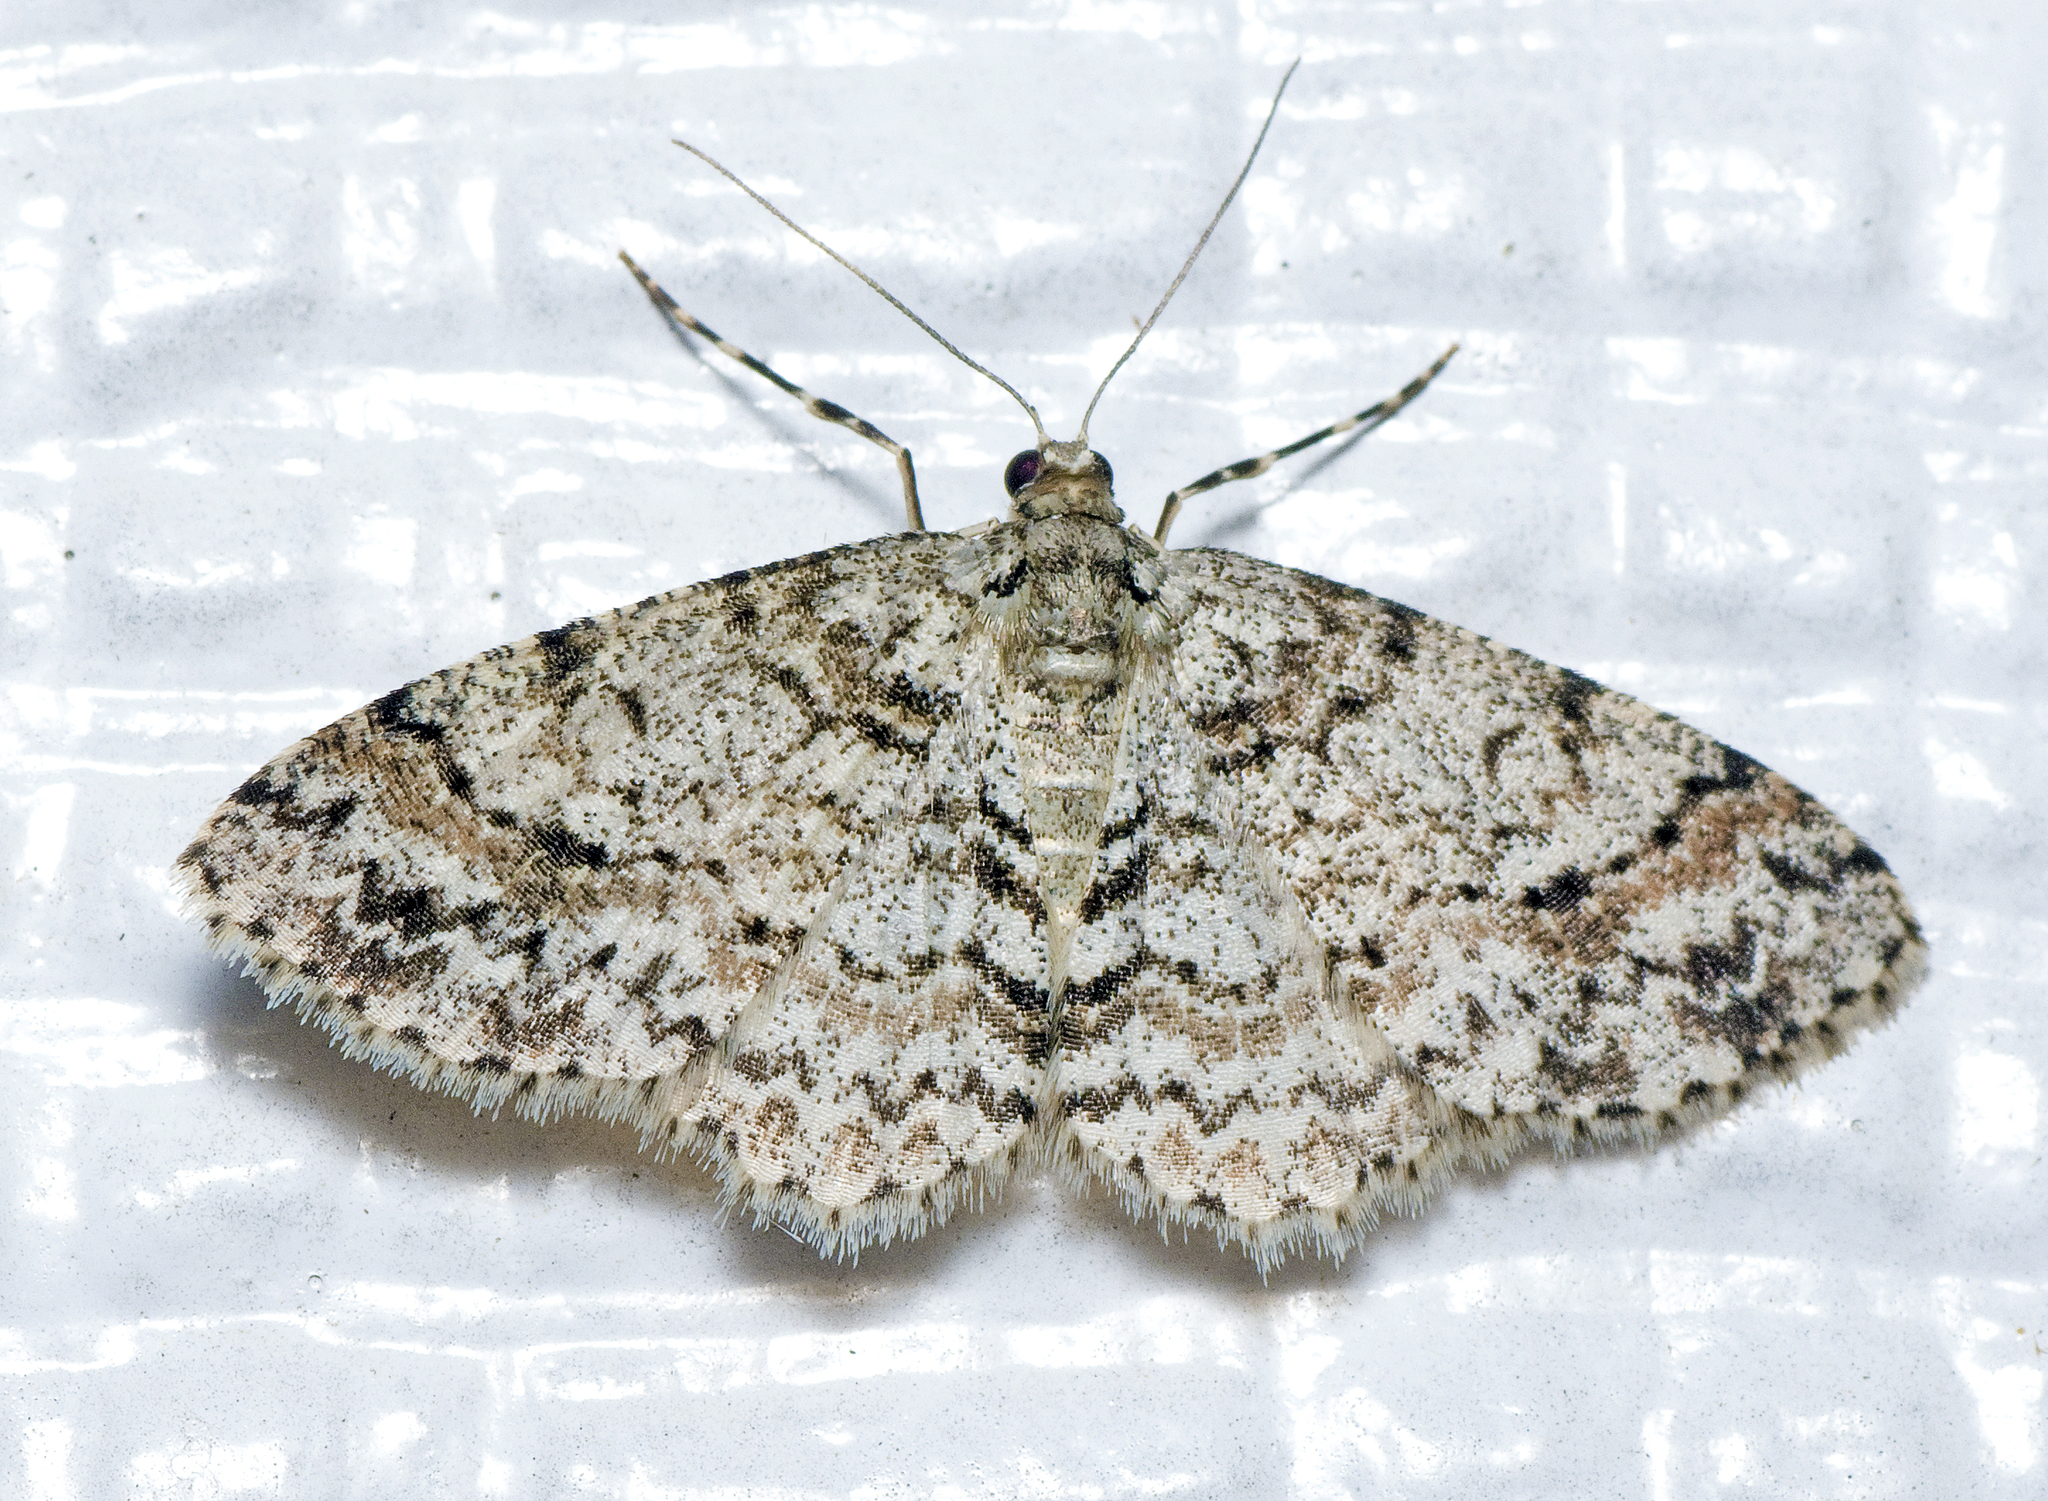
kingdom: Animalia
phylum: Arthropoda
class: Insecta
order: Lepidoptera
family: Geometridae
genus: Myrioblephara
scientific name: Myrioblephara desumpta
